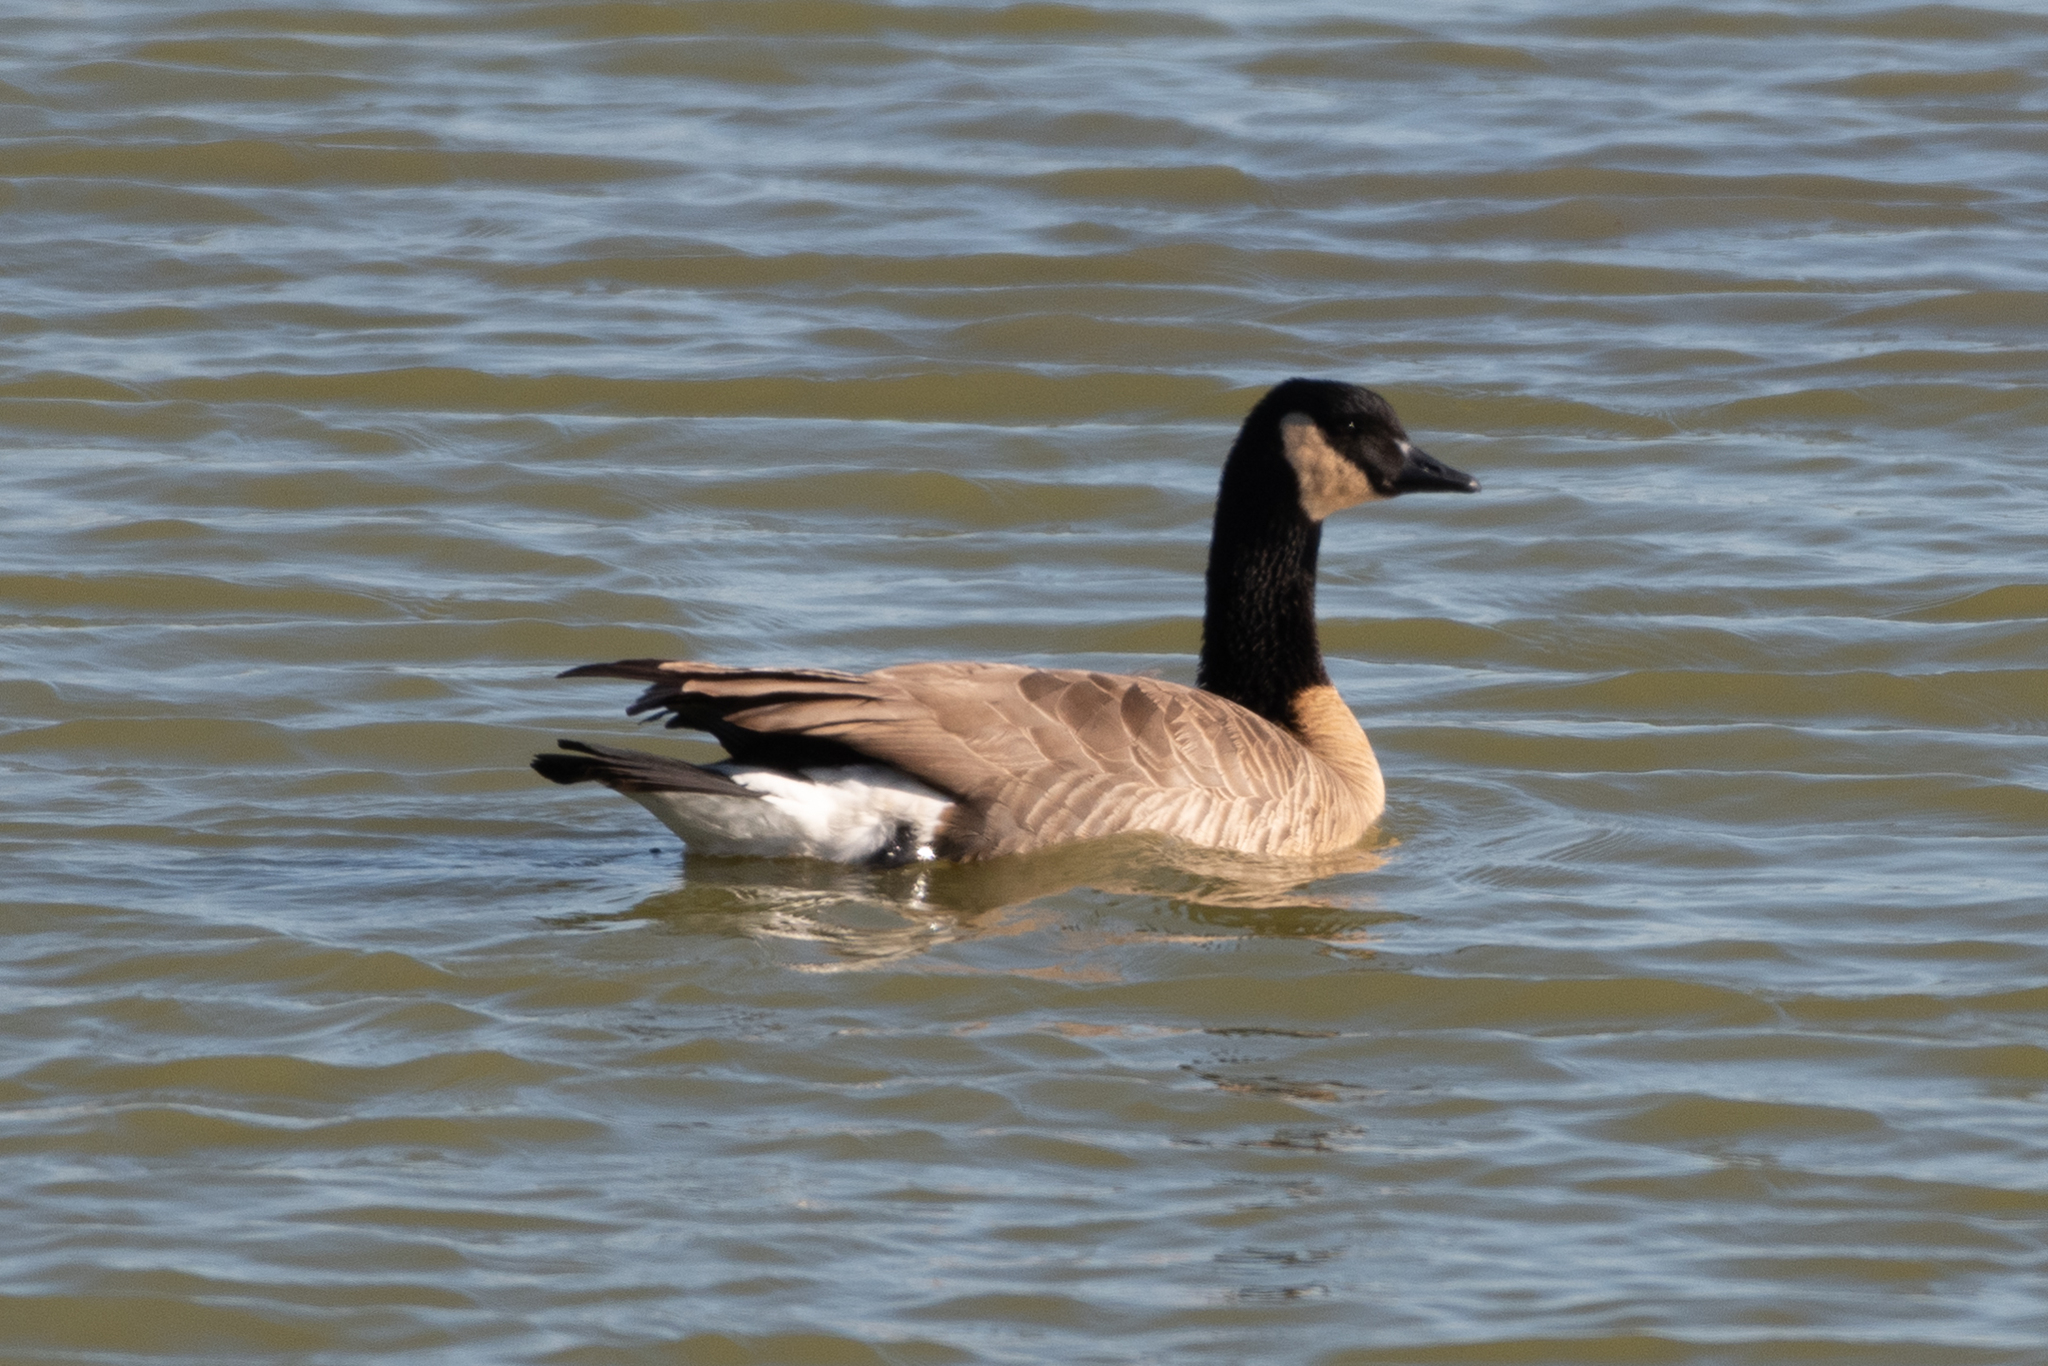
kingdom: Animalia
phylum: Chordata
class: Aves
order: Anseriformes
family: Anatidae
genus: Branta
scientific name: Branta canadensis
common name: Canada goose
